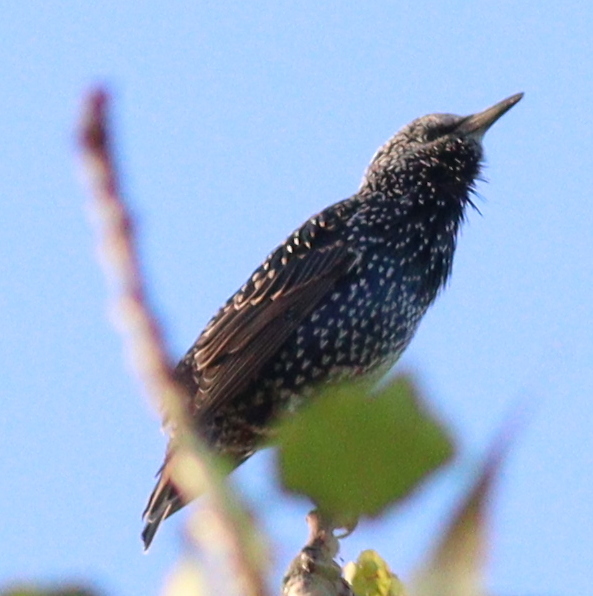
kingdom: Animalia
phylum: Chordata
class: Aves
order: Passeriformes
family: Sturnidae
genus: Sturnus
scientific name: Sturnus vulgaris
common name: Common starling
